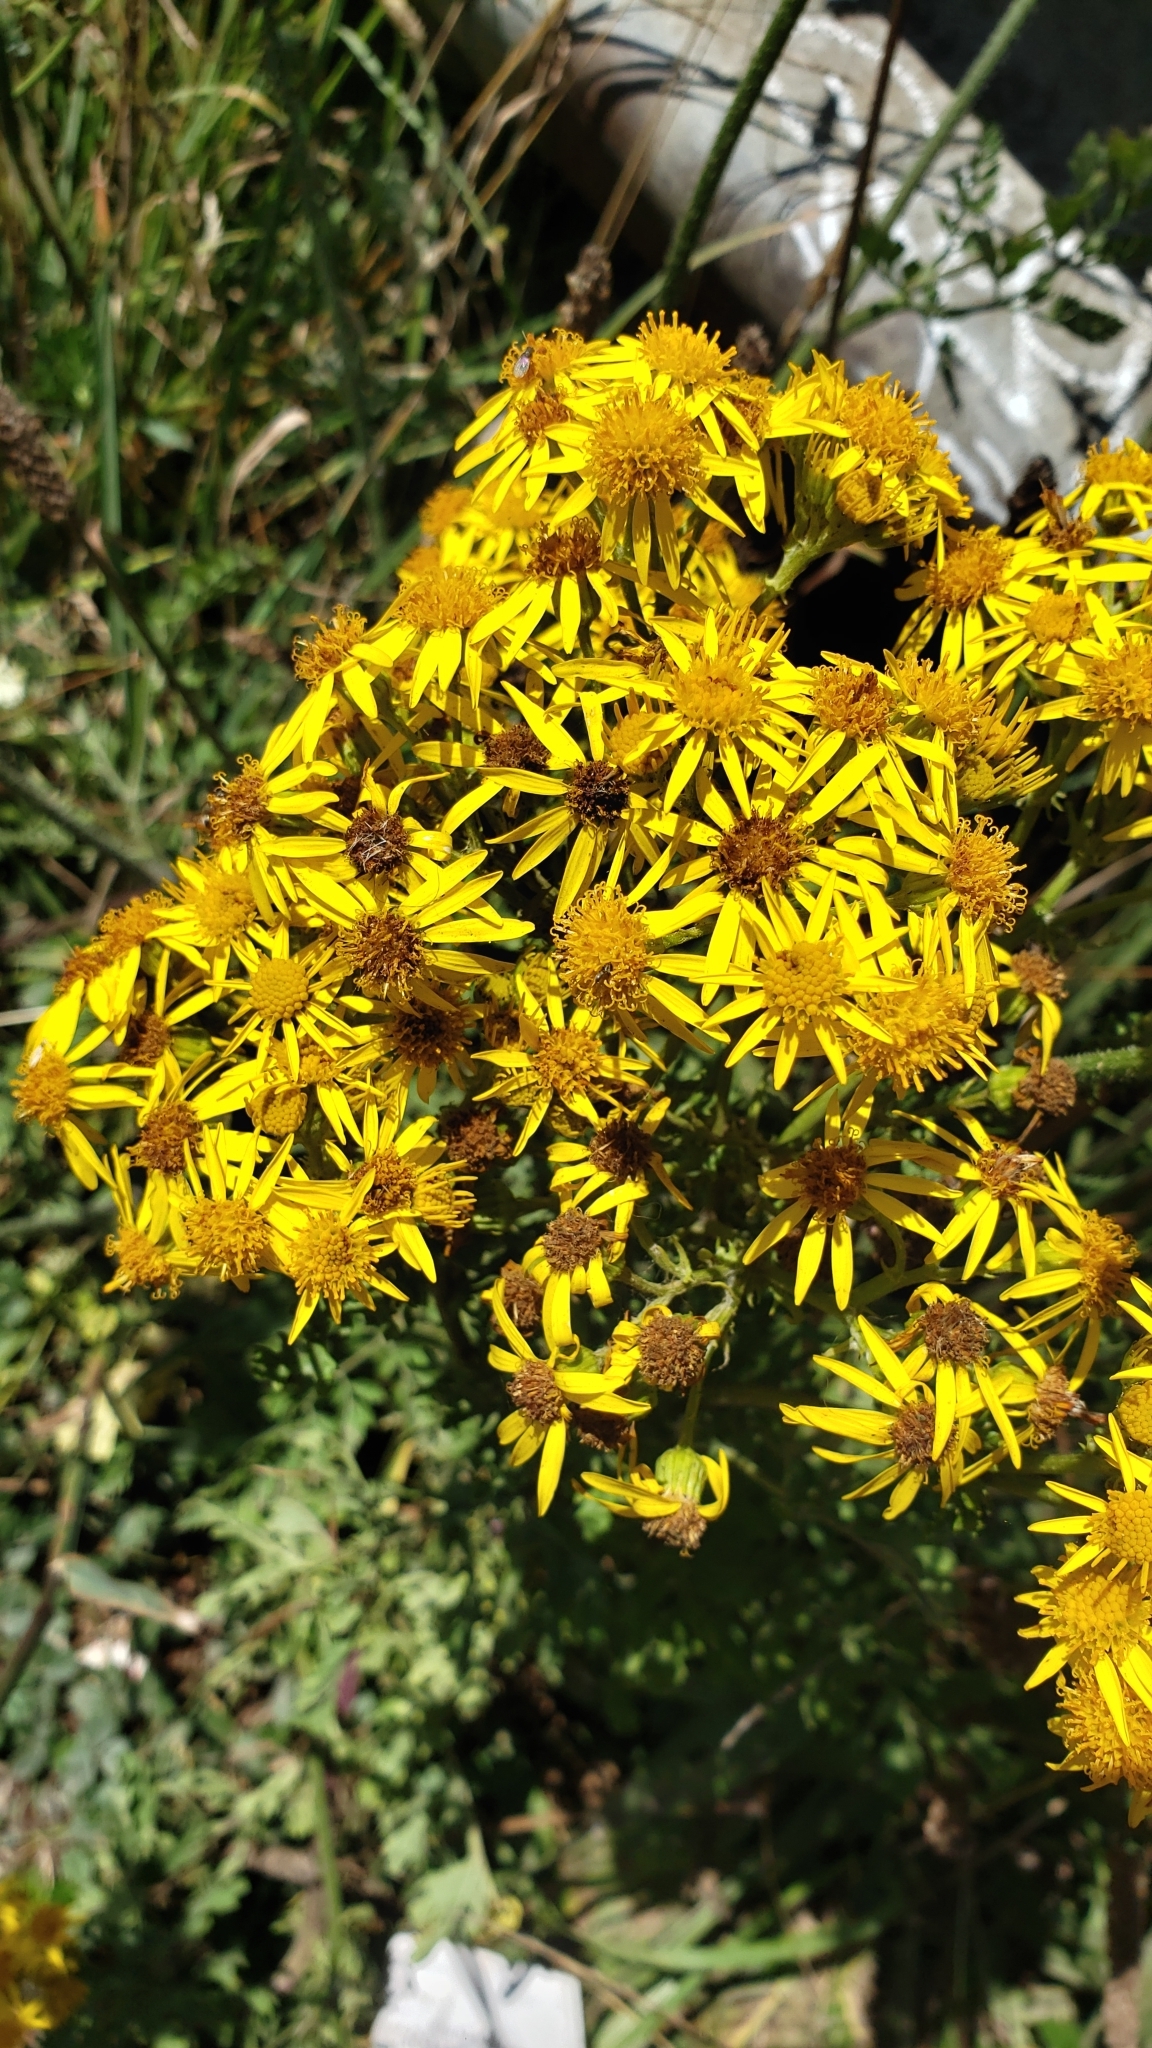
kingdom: Plantae
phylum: Tracheophyta
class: Magnoliopsida
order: Asterales
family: Asteraceae
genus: Jacobaea
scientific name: Jacobaea vulgaris
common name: Stinking willie
